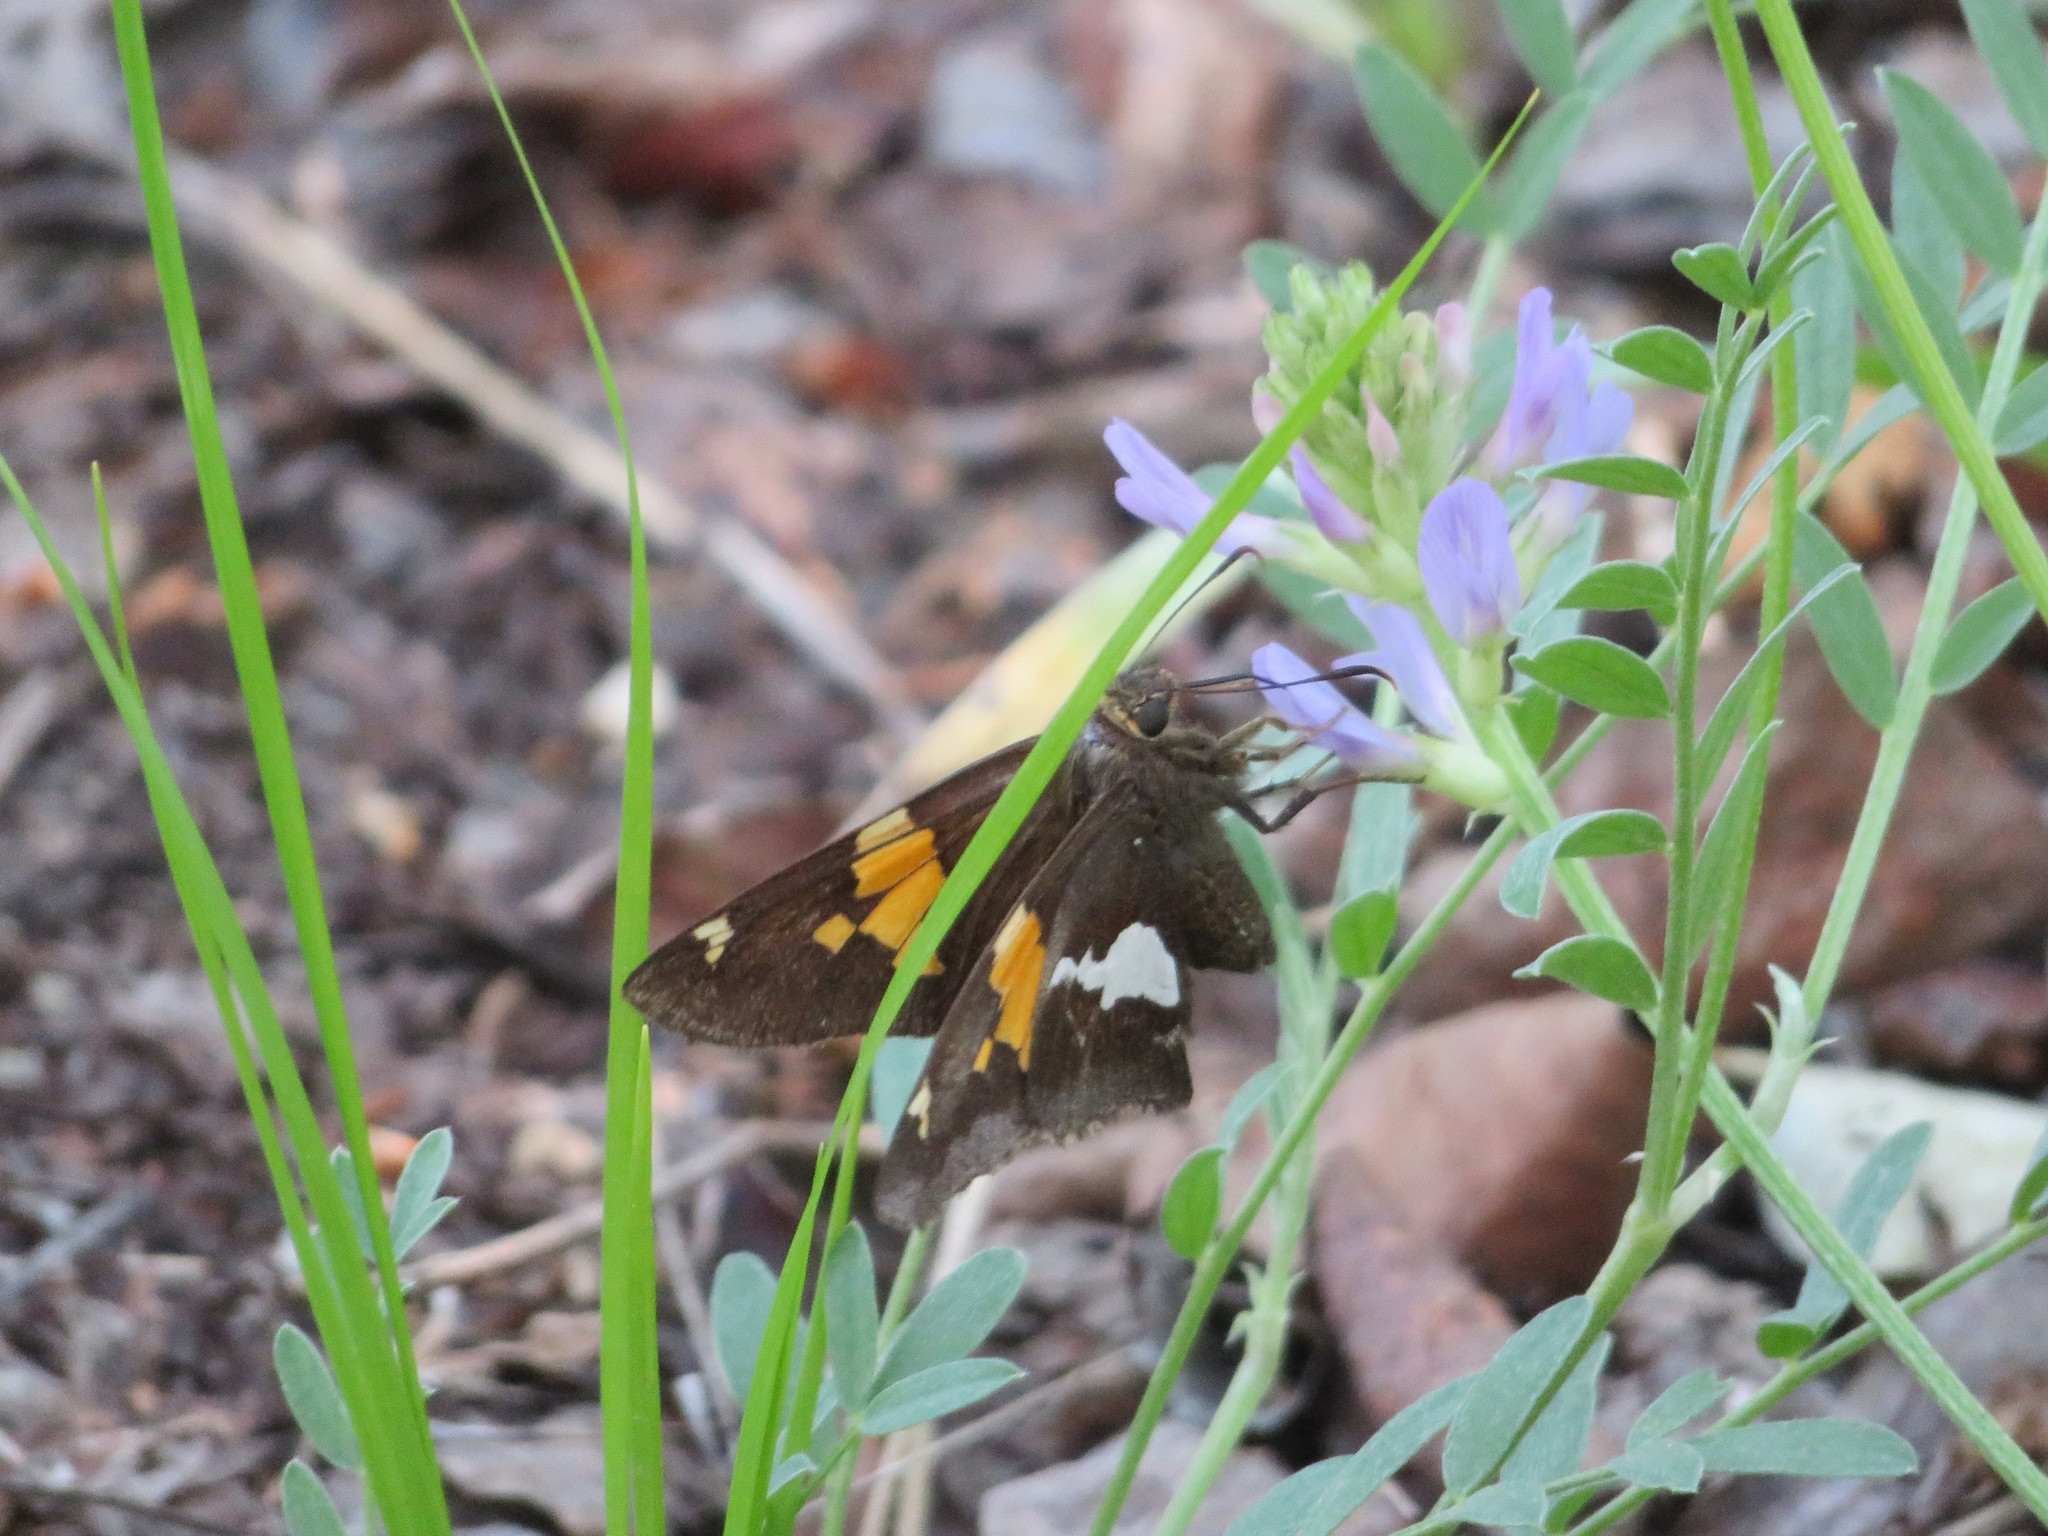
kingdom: Animalia
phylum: Arthropoda
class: Insecta
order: Lepidoptera
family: Hesperiidae
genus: Epargyreus
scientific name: Epargyreus clarus
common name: Silver-spotted skipper
